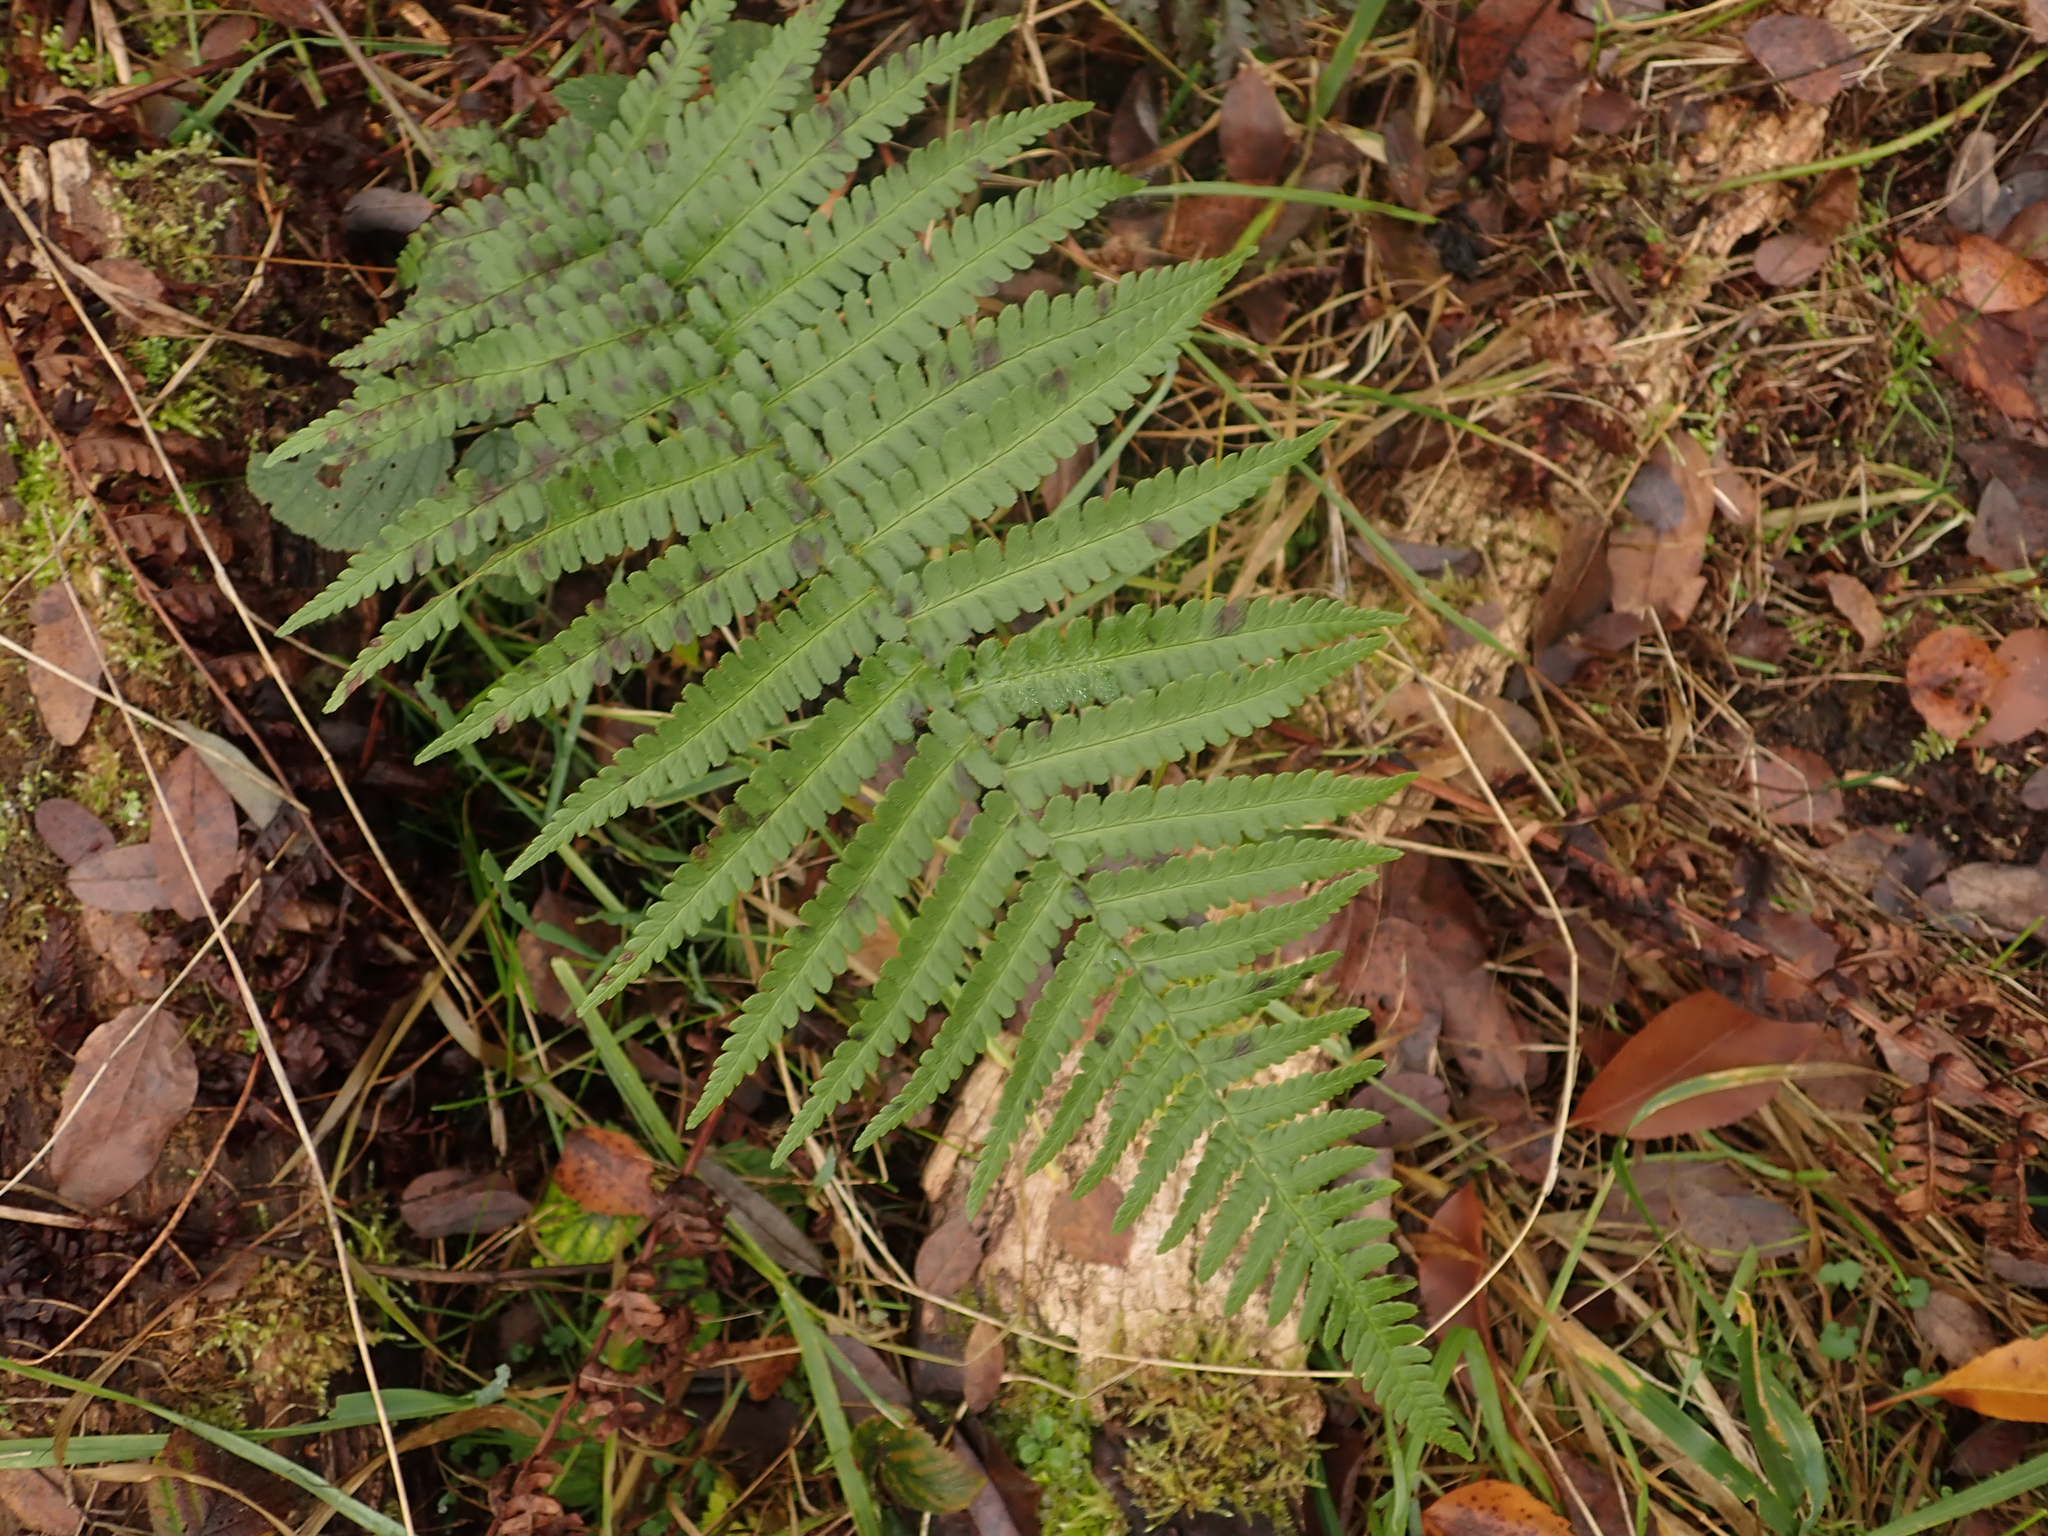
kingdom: Plantae
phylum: Tracheophyta
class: Polypodiopsida
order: Polypodiales
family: Dryopteridaceae
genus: Dryopteris
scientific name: Dryopteris filix-mas
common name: Male fern
